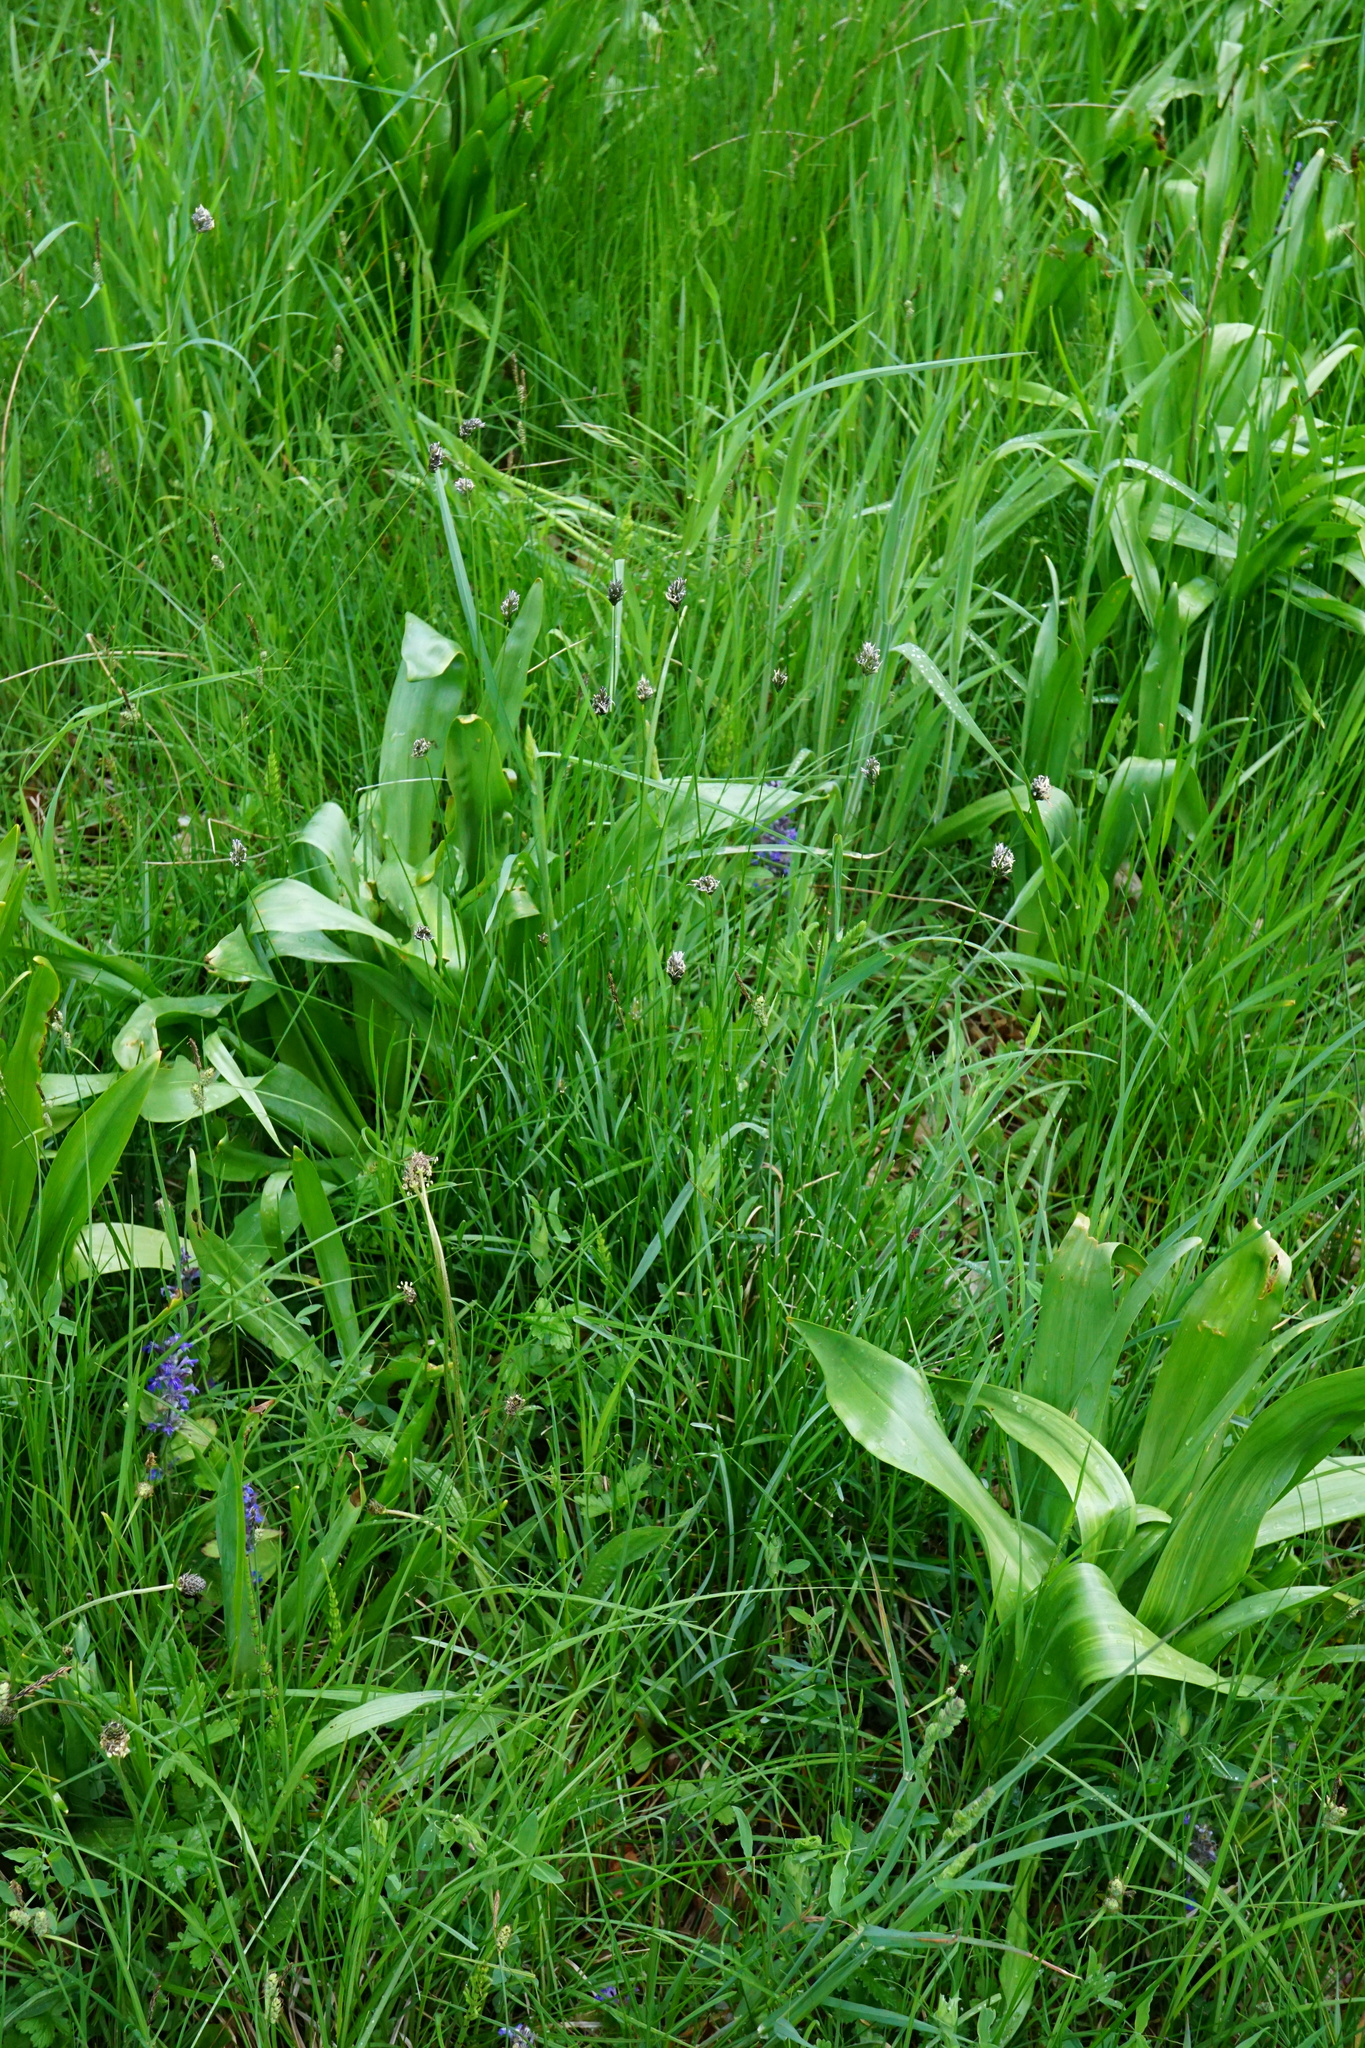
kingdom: Plantae
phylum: Tracheophyta
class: Liliopsida
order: Poales
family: Poaceae
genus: Sesleria
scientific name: Sesleria uliginosa
